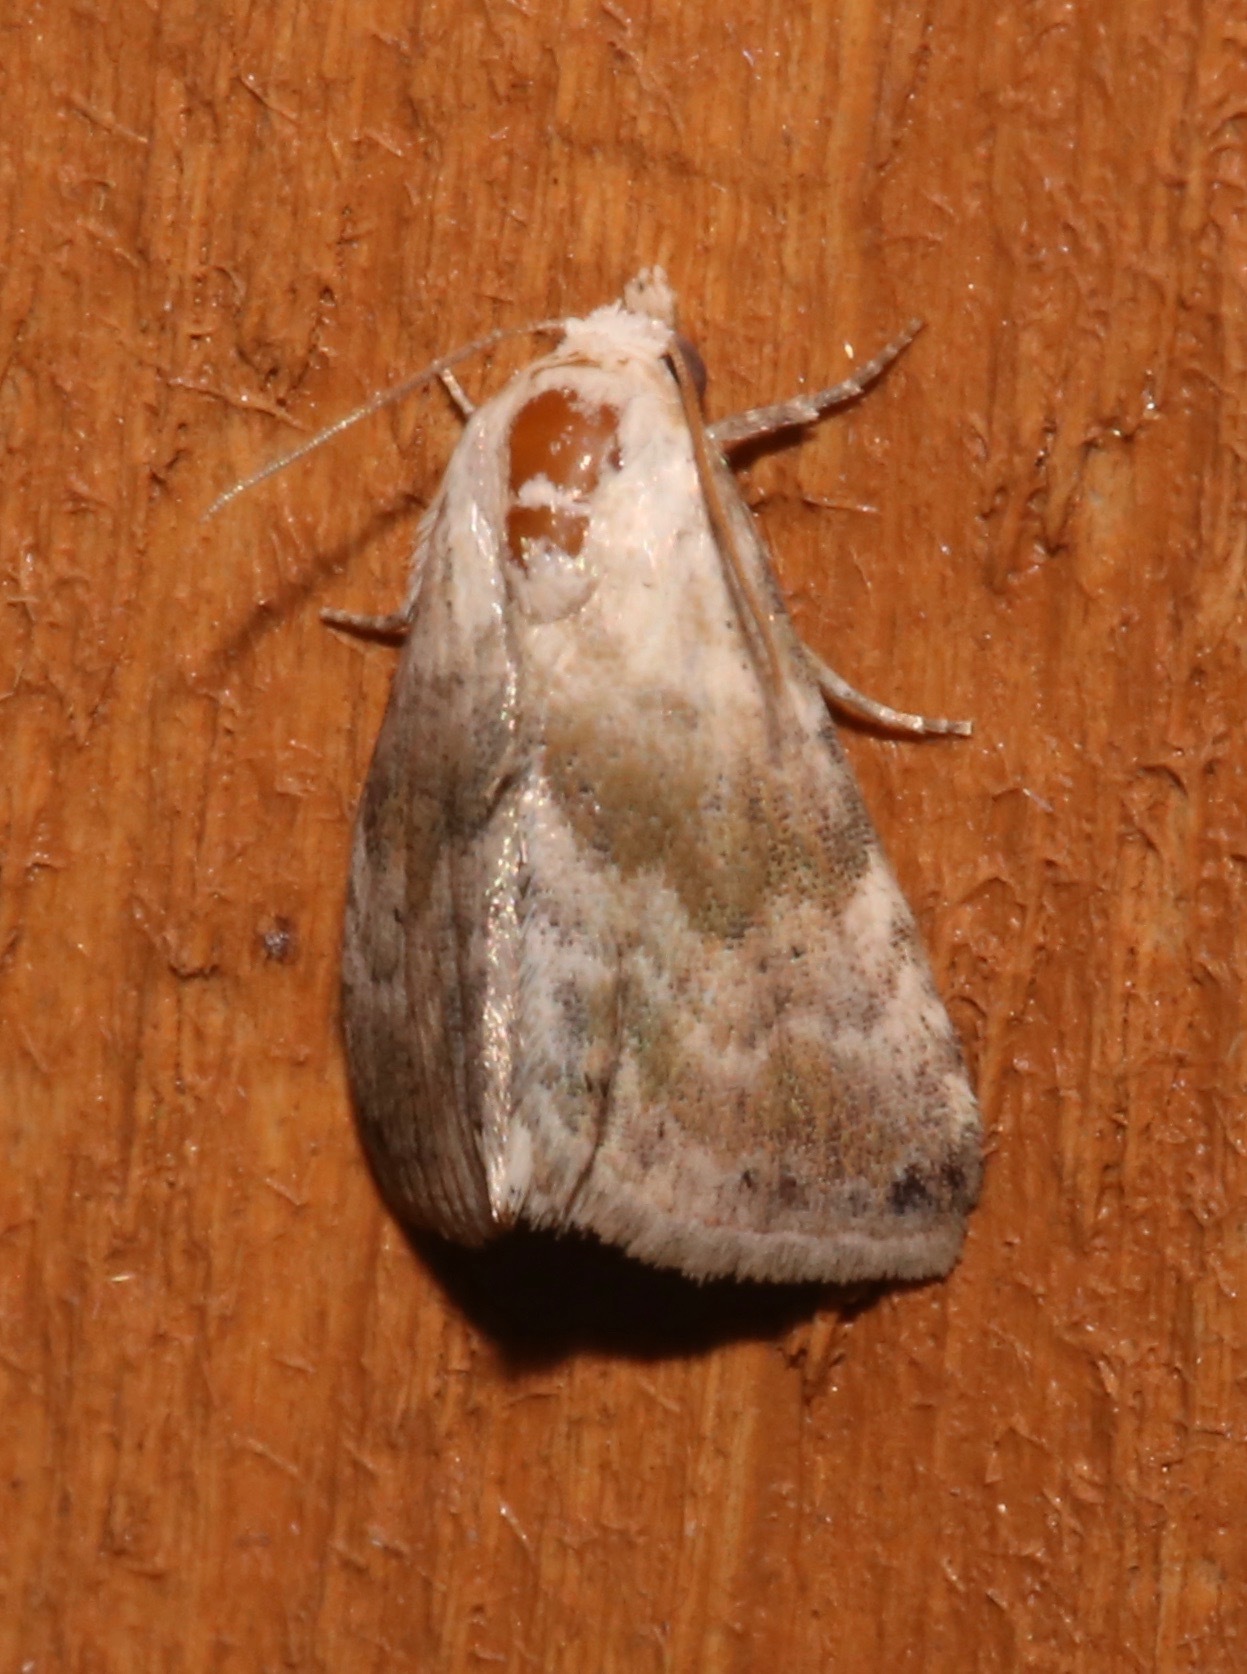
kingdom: Animalia
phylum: Arthropoda
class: Insecta
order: Lepidoptera
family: Noctuidae
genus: Eublemma
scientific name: Eublemma minima
